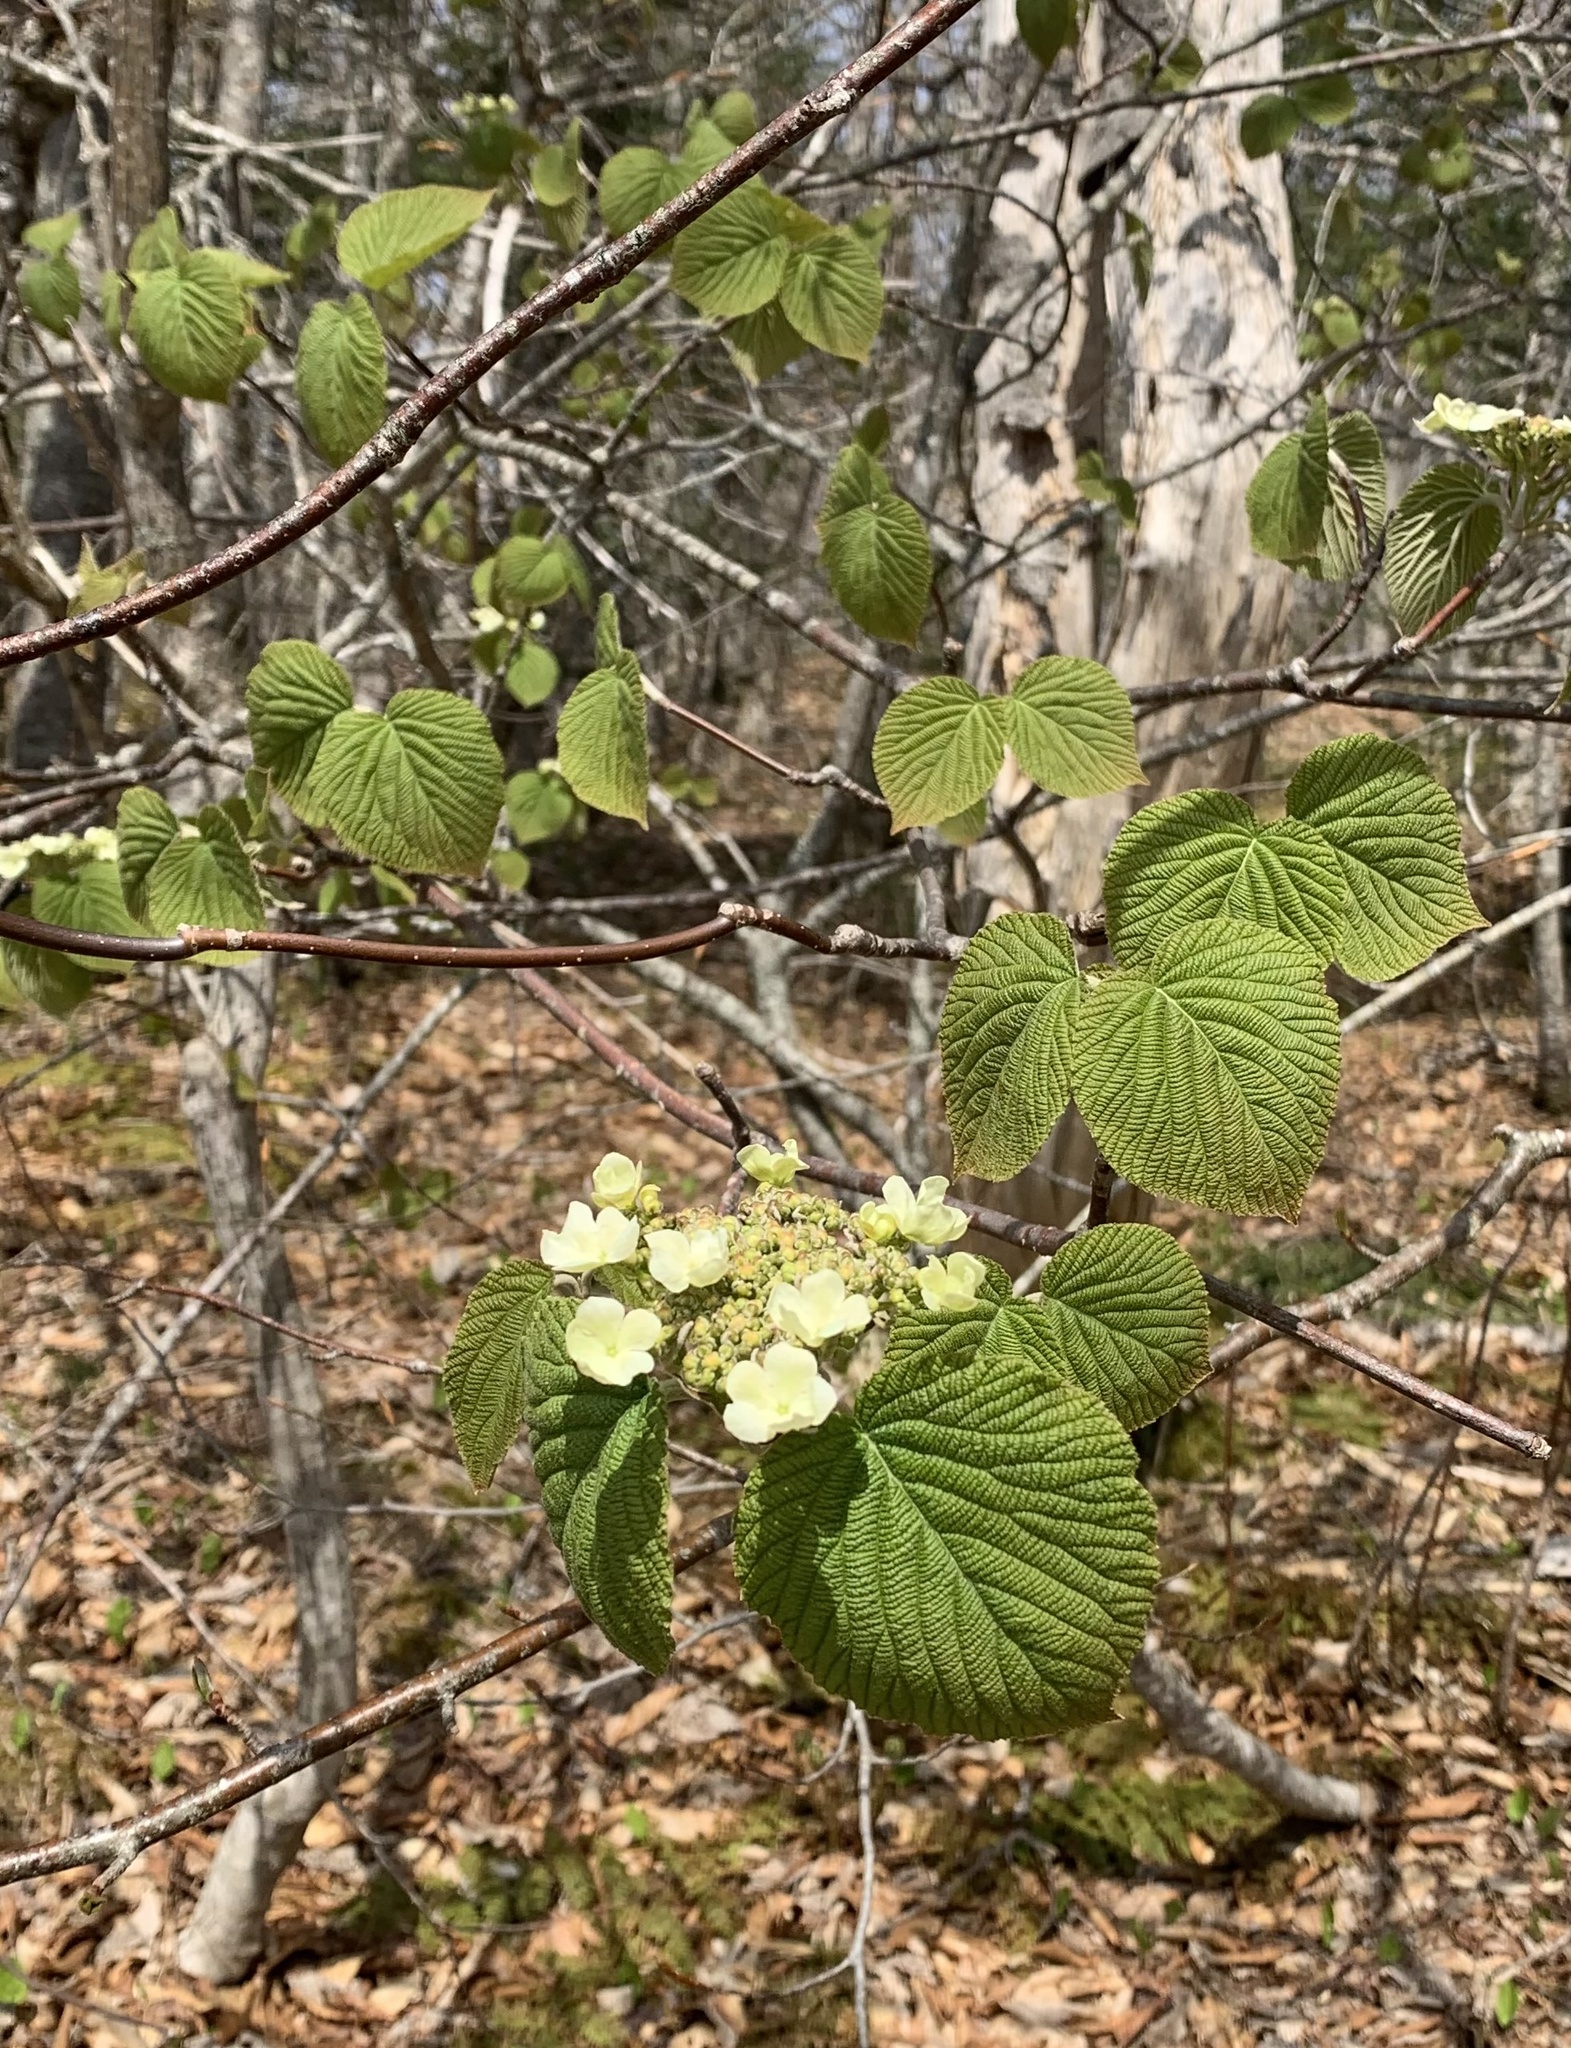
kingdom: Plantae
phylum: Tracheophyta
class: Magnoliopsida
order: Dipsacales
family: Viburnaceae
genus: Viburnum
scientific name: Viburnum lantanoides
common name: Hobblebush
